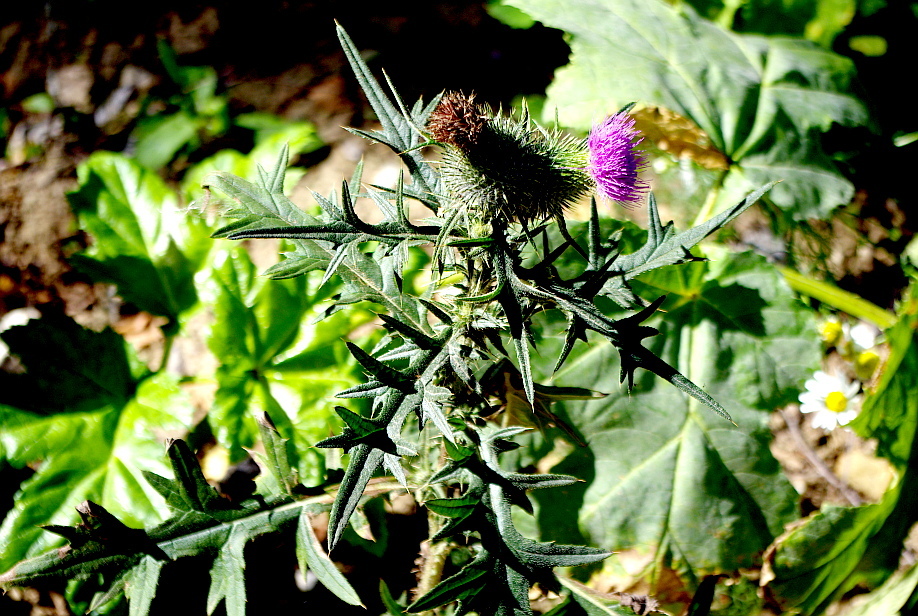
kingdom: Plantae
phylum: Tracheophyta
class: Magnoliopsida
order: Asterales
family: Asteraceae
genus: Cirsium
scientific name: Cirsium vulgare
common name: Bull thistle
